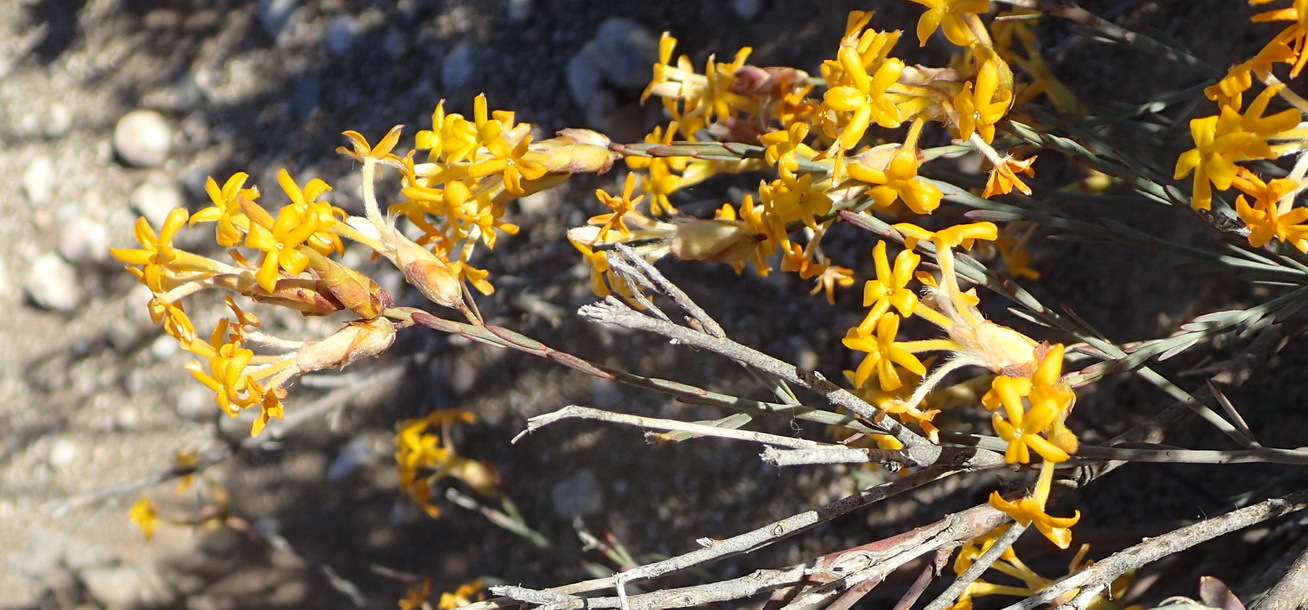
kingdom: Plantae
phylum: Tracheophyta
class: Magnoliopsida
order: Malvales
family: Thymelaeaceae
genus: Gnidia
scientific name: Gnidia polycephala
